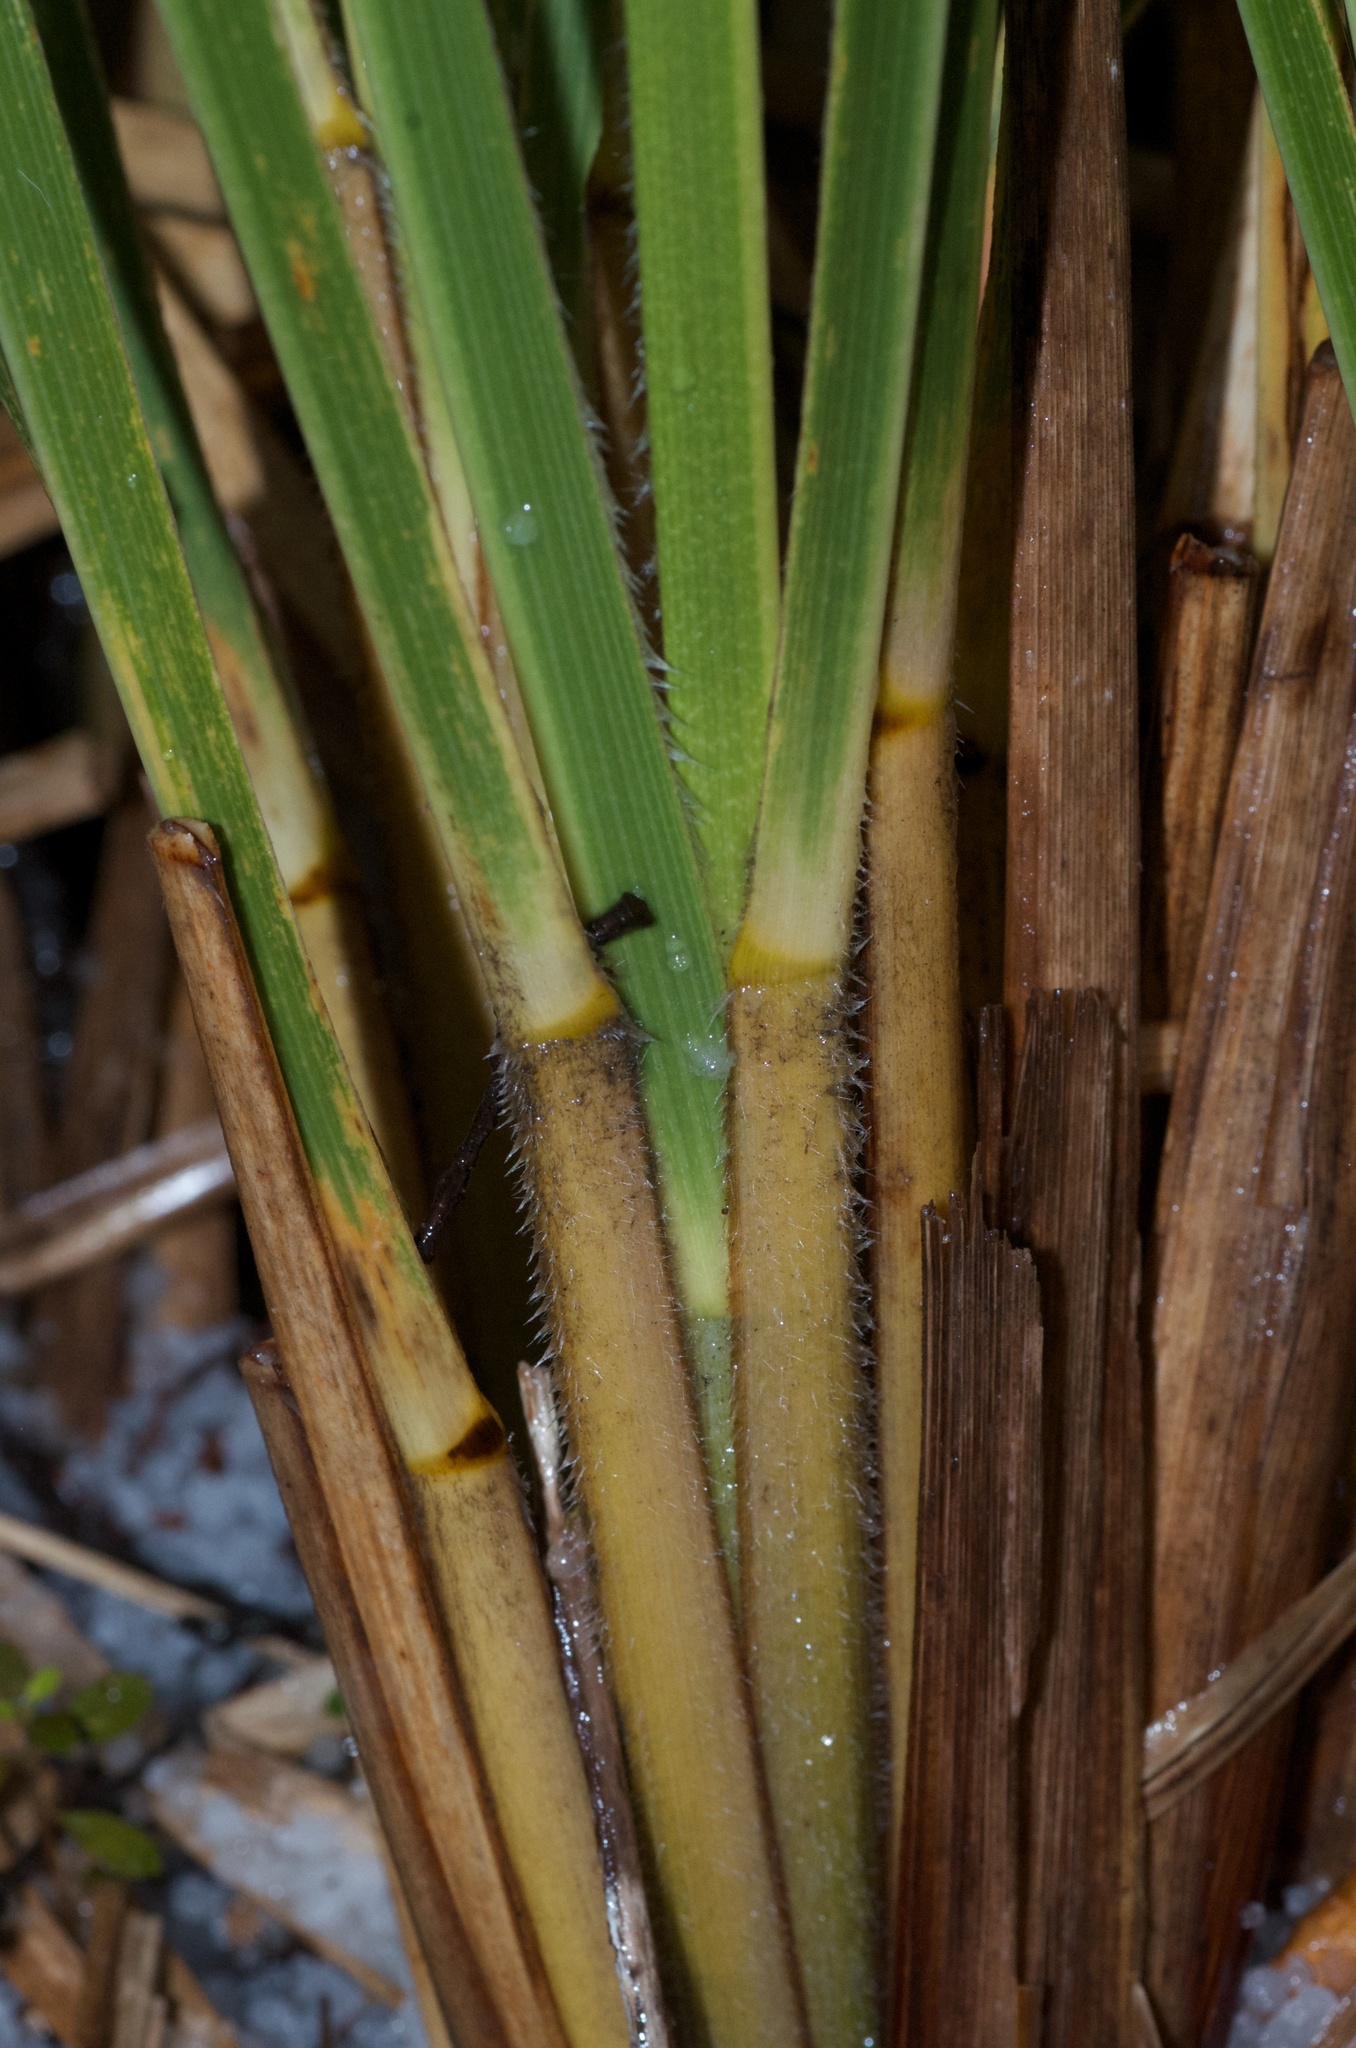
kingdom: Plantae
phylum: Tracheophyta
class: Liliopsida
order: Poales
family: Poaceae
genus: Chionochloa
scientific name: Chionochloa conspicua
